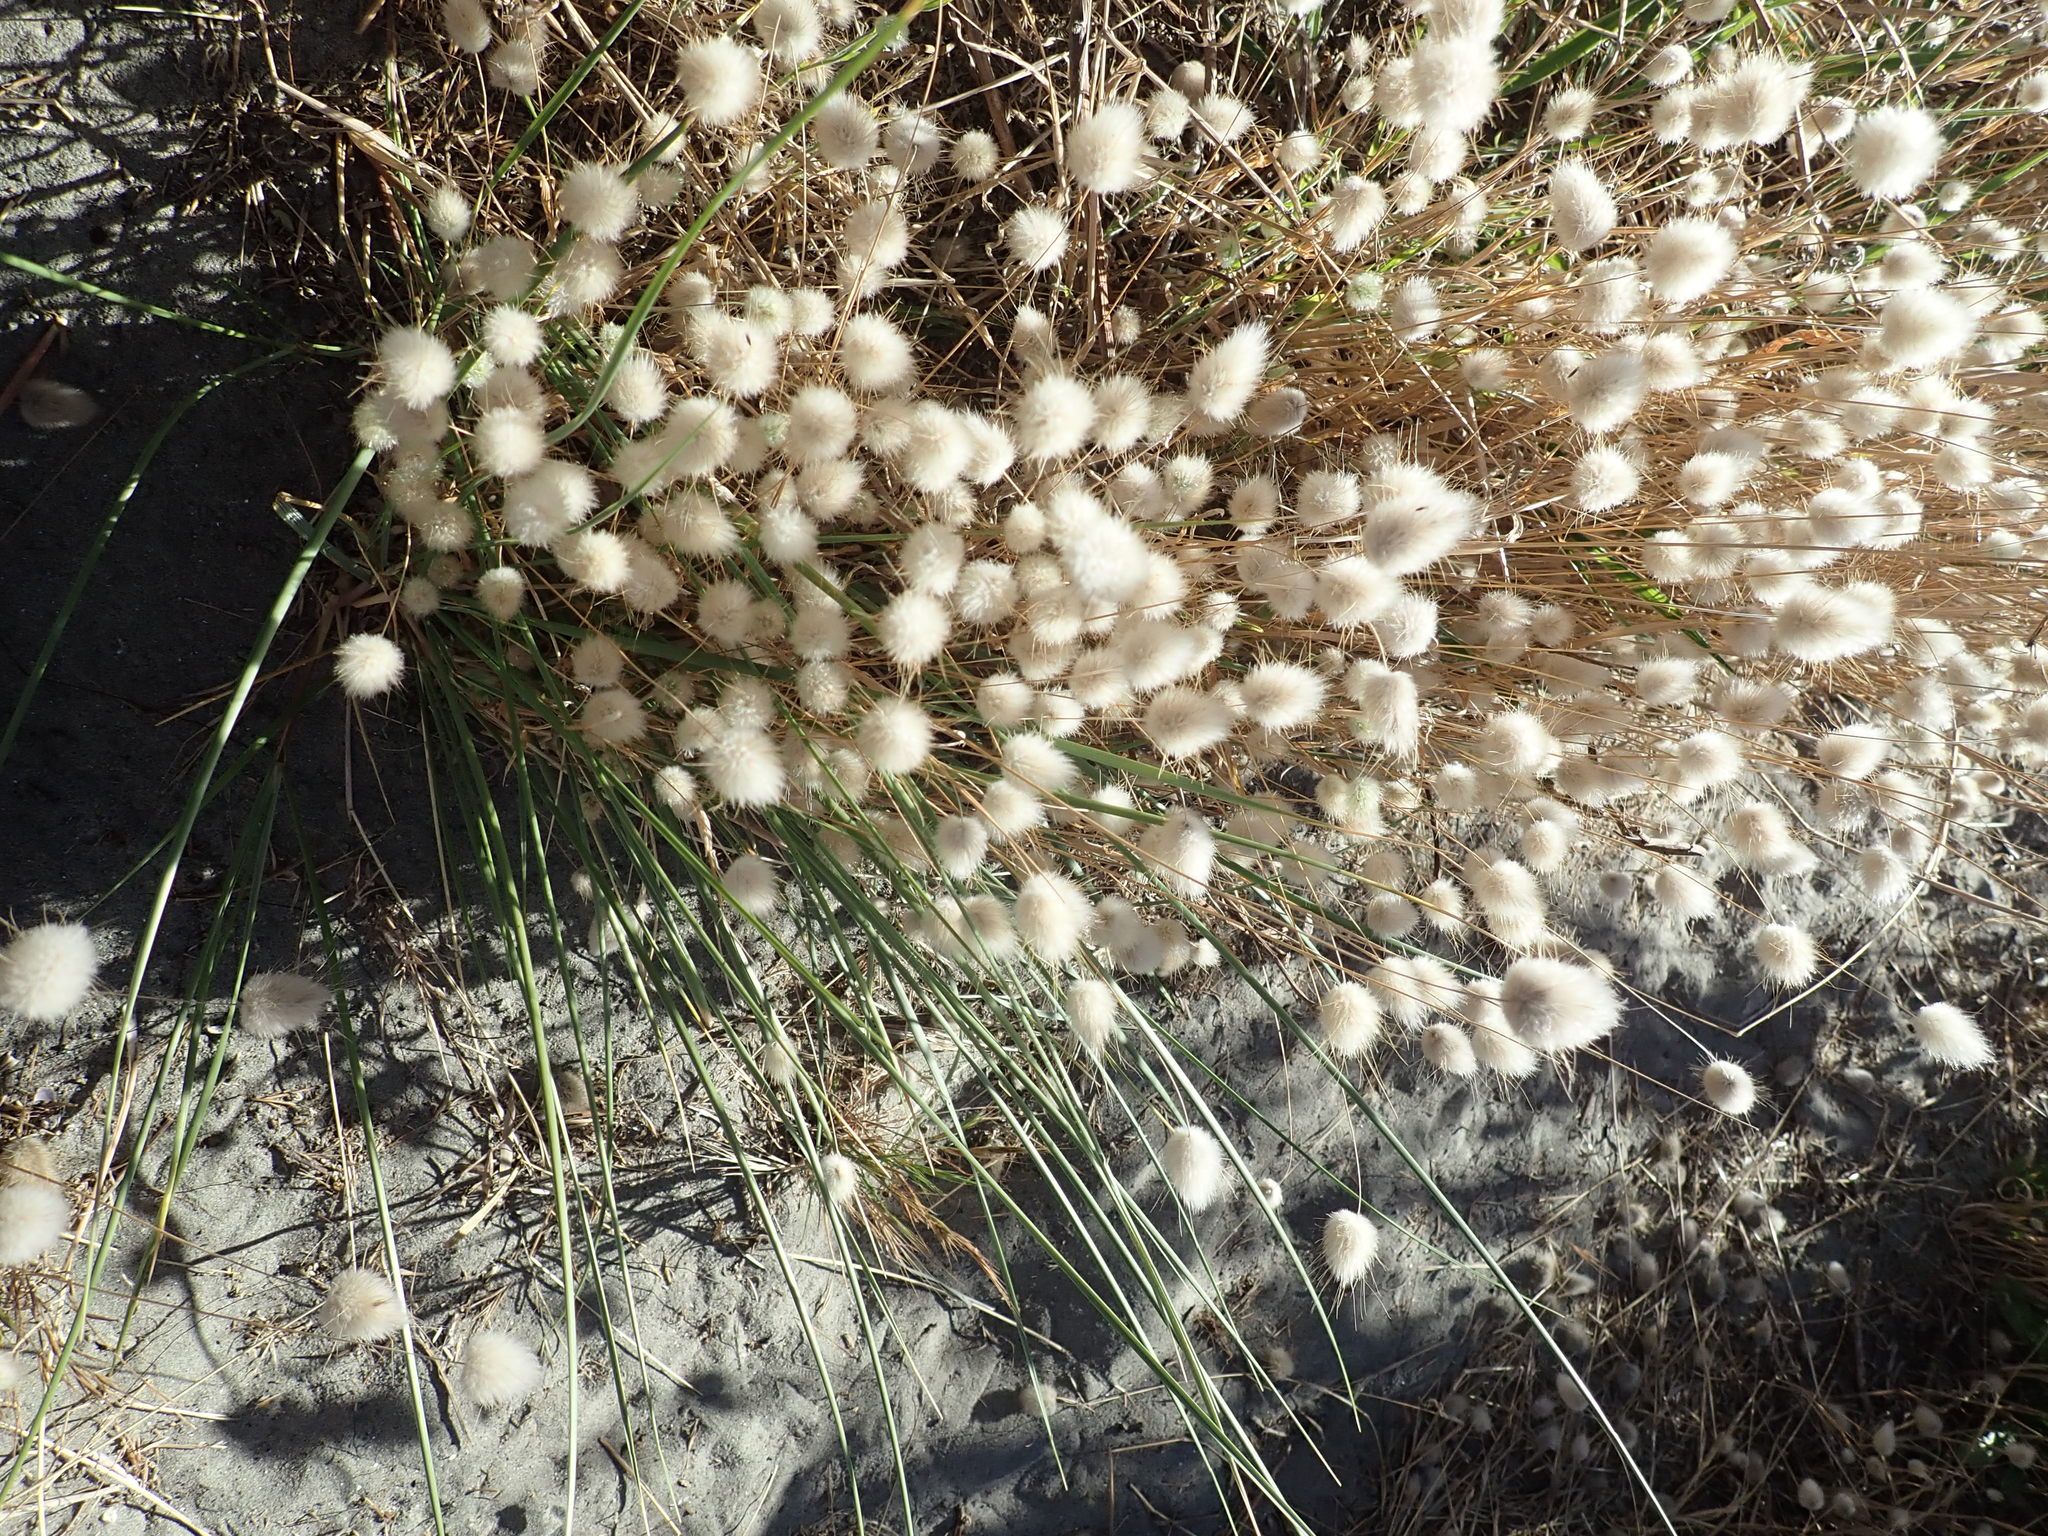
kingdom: Plantae
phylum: Tracheophyta
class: Liliopsida
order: Poales
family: Poaceae
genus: Lagurus
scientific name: Lagurus ovatus
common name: Hare's-tail
